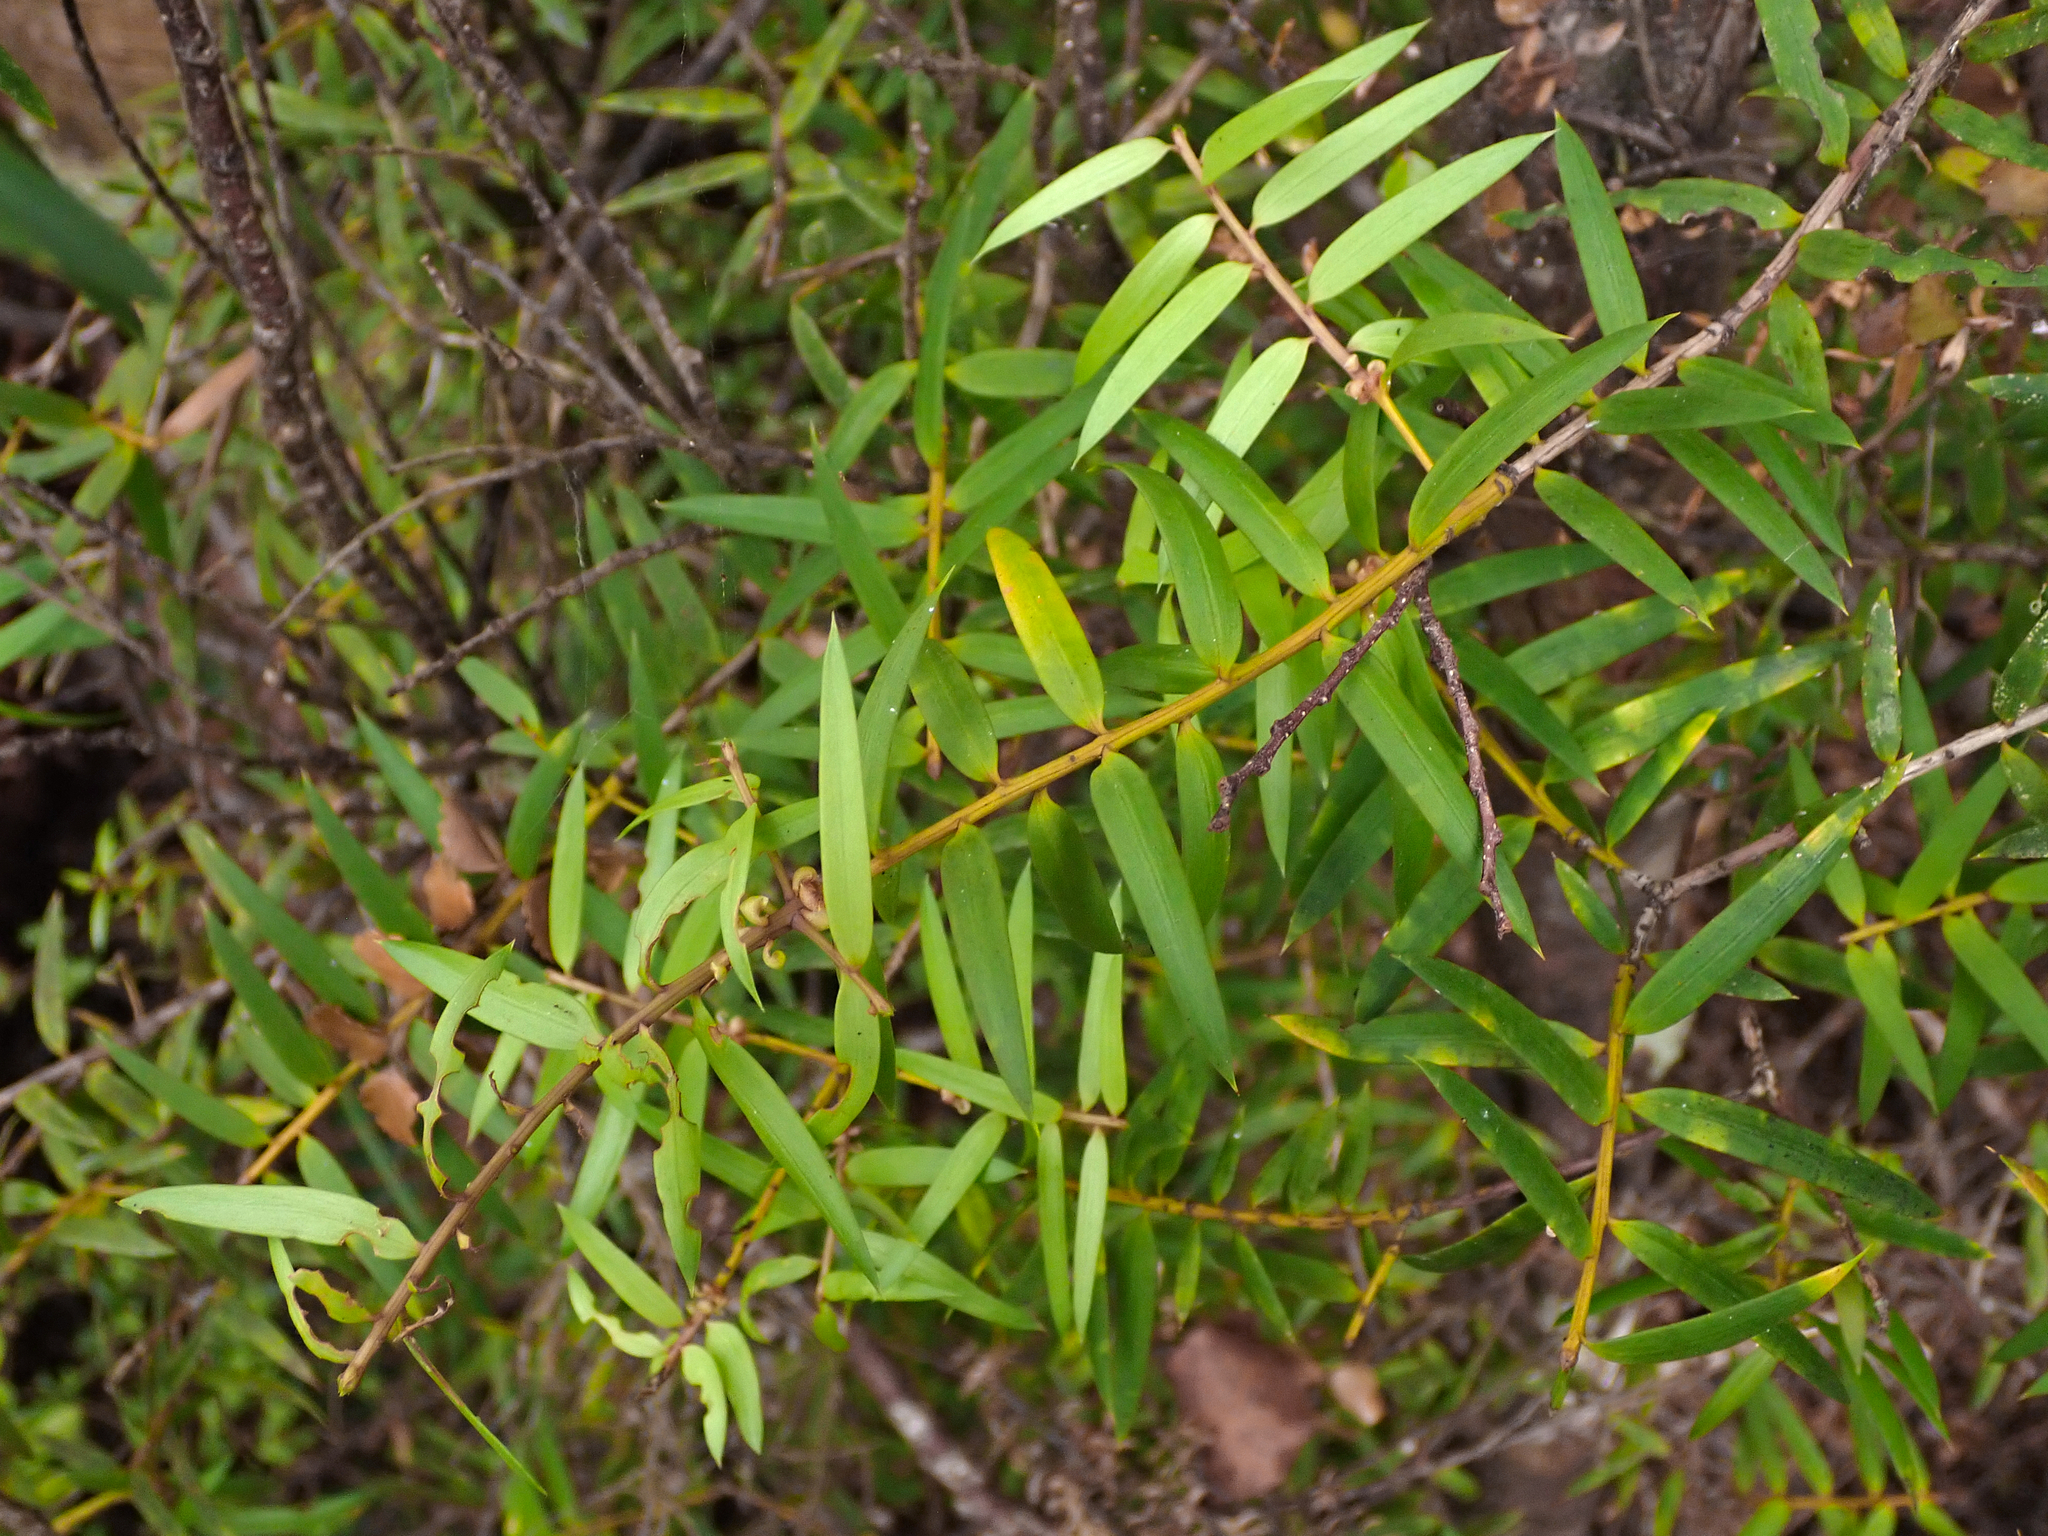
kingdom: Plantae
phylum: Tracheophyta
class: Pinopsida
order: Pinales
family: Podocarpaceae
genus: Podocarpus
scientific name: Podocarpus laetus
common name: Hall's totara
